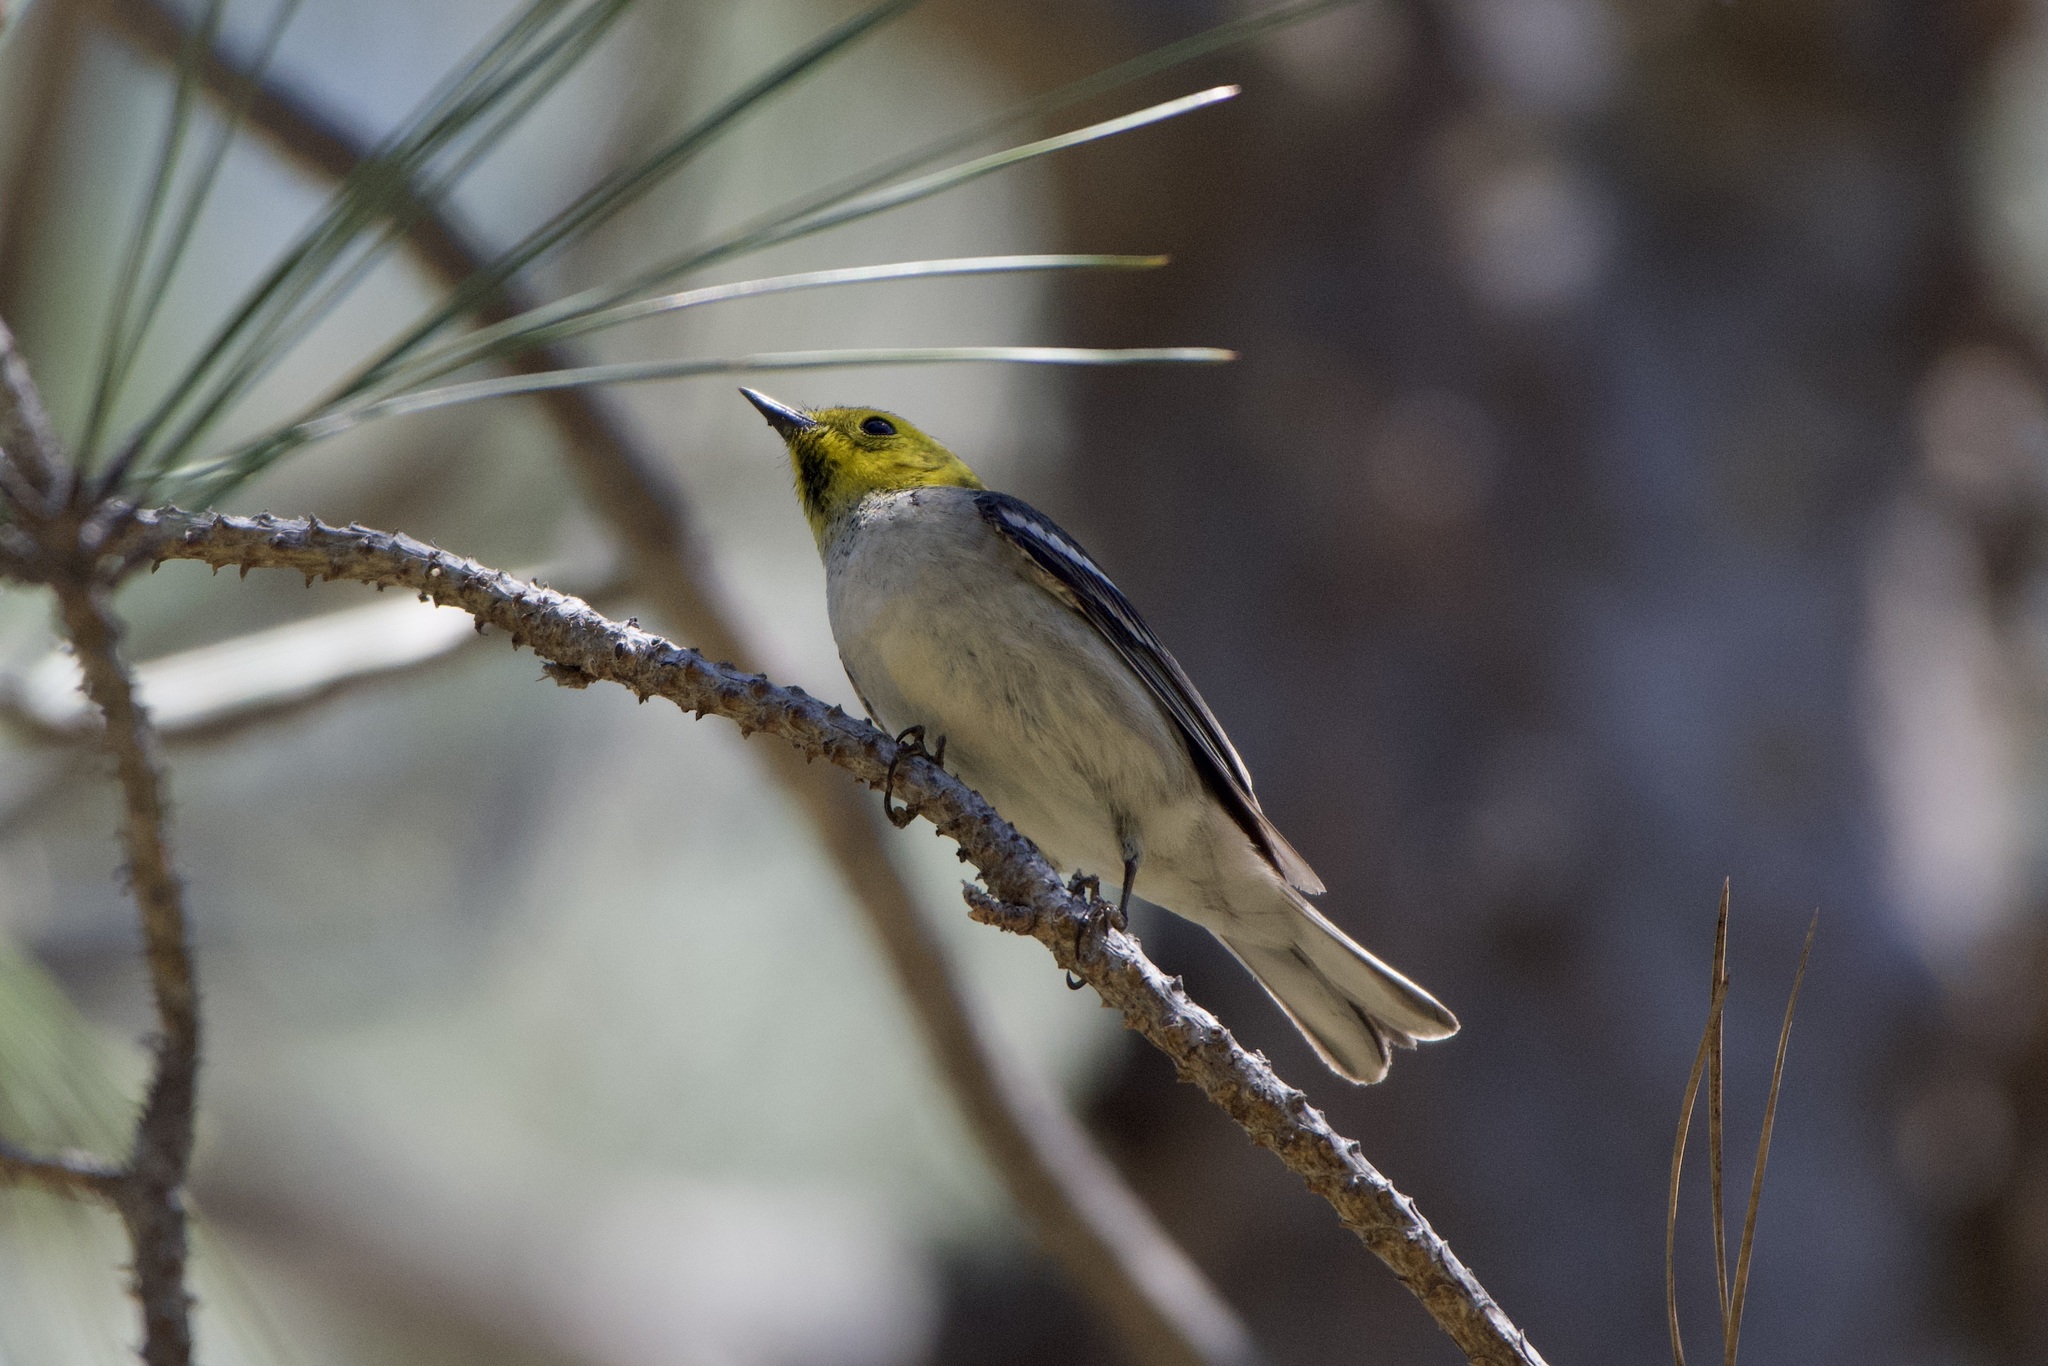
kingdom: Animalia
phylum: Chordata
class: Aves
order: Passeriformes
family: Parulidae
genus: Setophaga
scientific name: Setophaga occidentalis
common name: Hermit warbler
